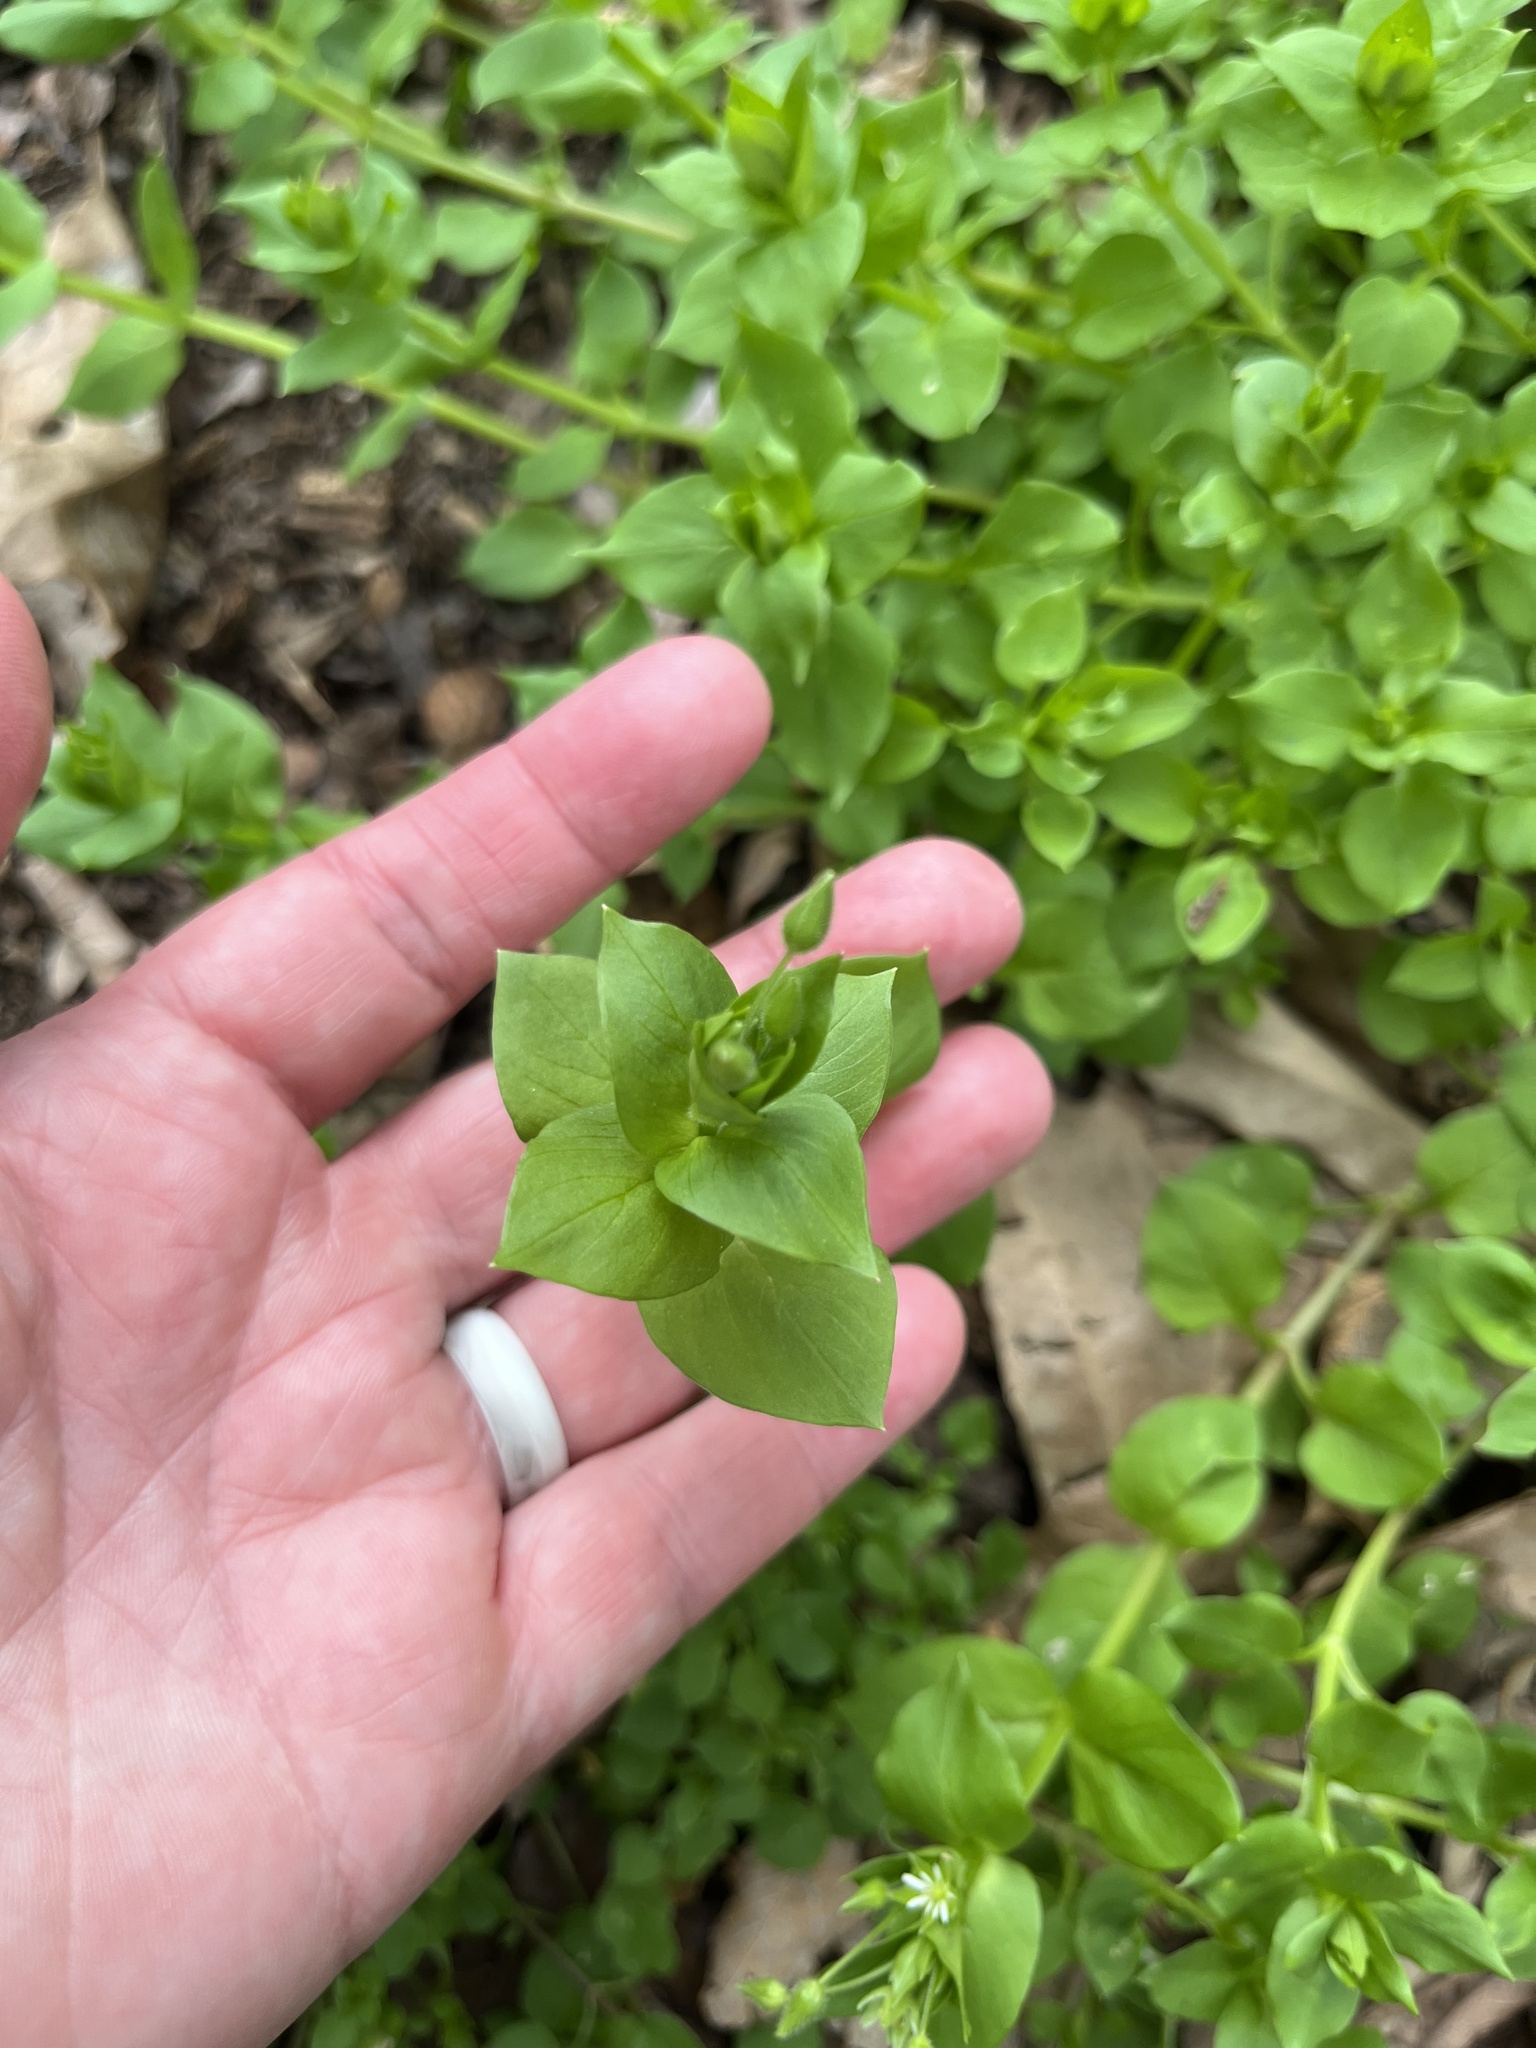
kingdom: Plantae
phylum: Tracheophyta
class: Magnoliopsida
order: Caryophyllales
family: Caryophyllaceae
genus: Stellaria
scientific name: Stellaria media
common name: Common chickweed
